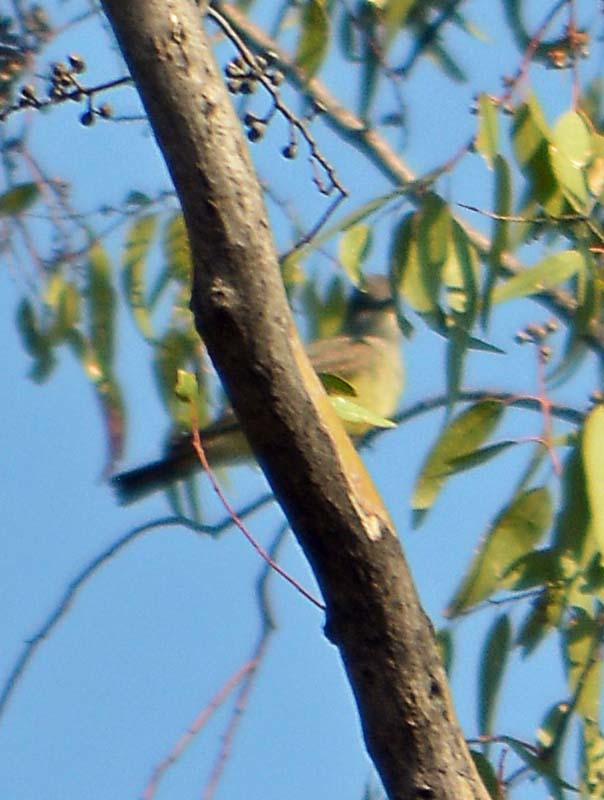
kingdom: Animalia
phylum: Chordata
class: Aves
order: Passeriformes
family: Tyrannidae
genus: Tyrannus
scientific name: Tyrannus vociferans
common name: Cassin's kingbird
